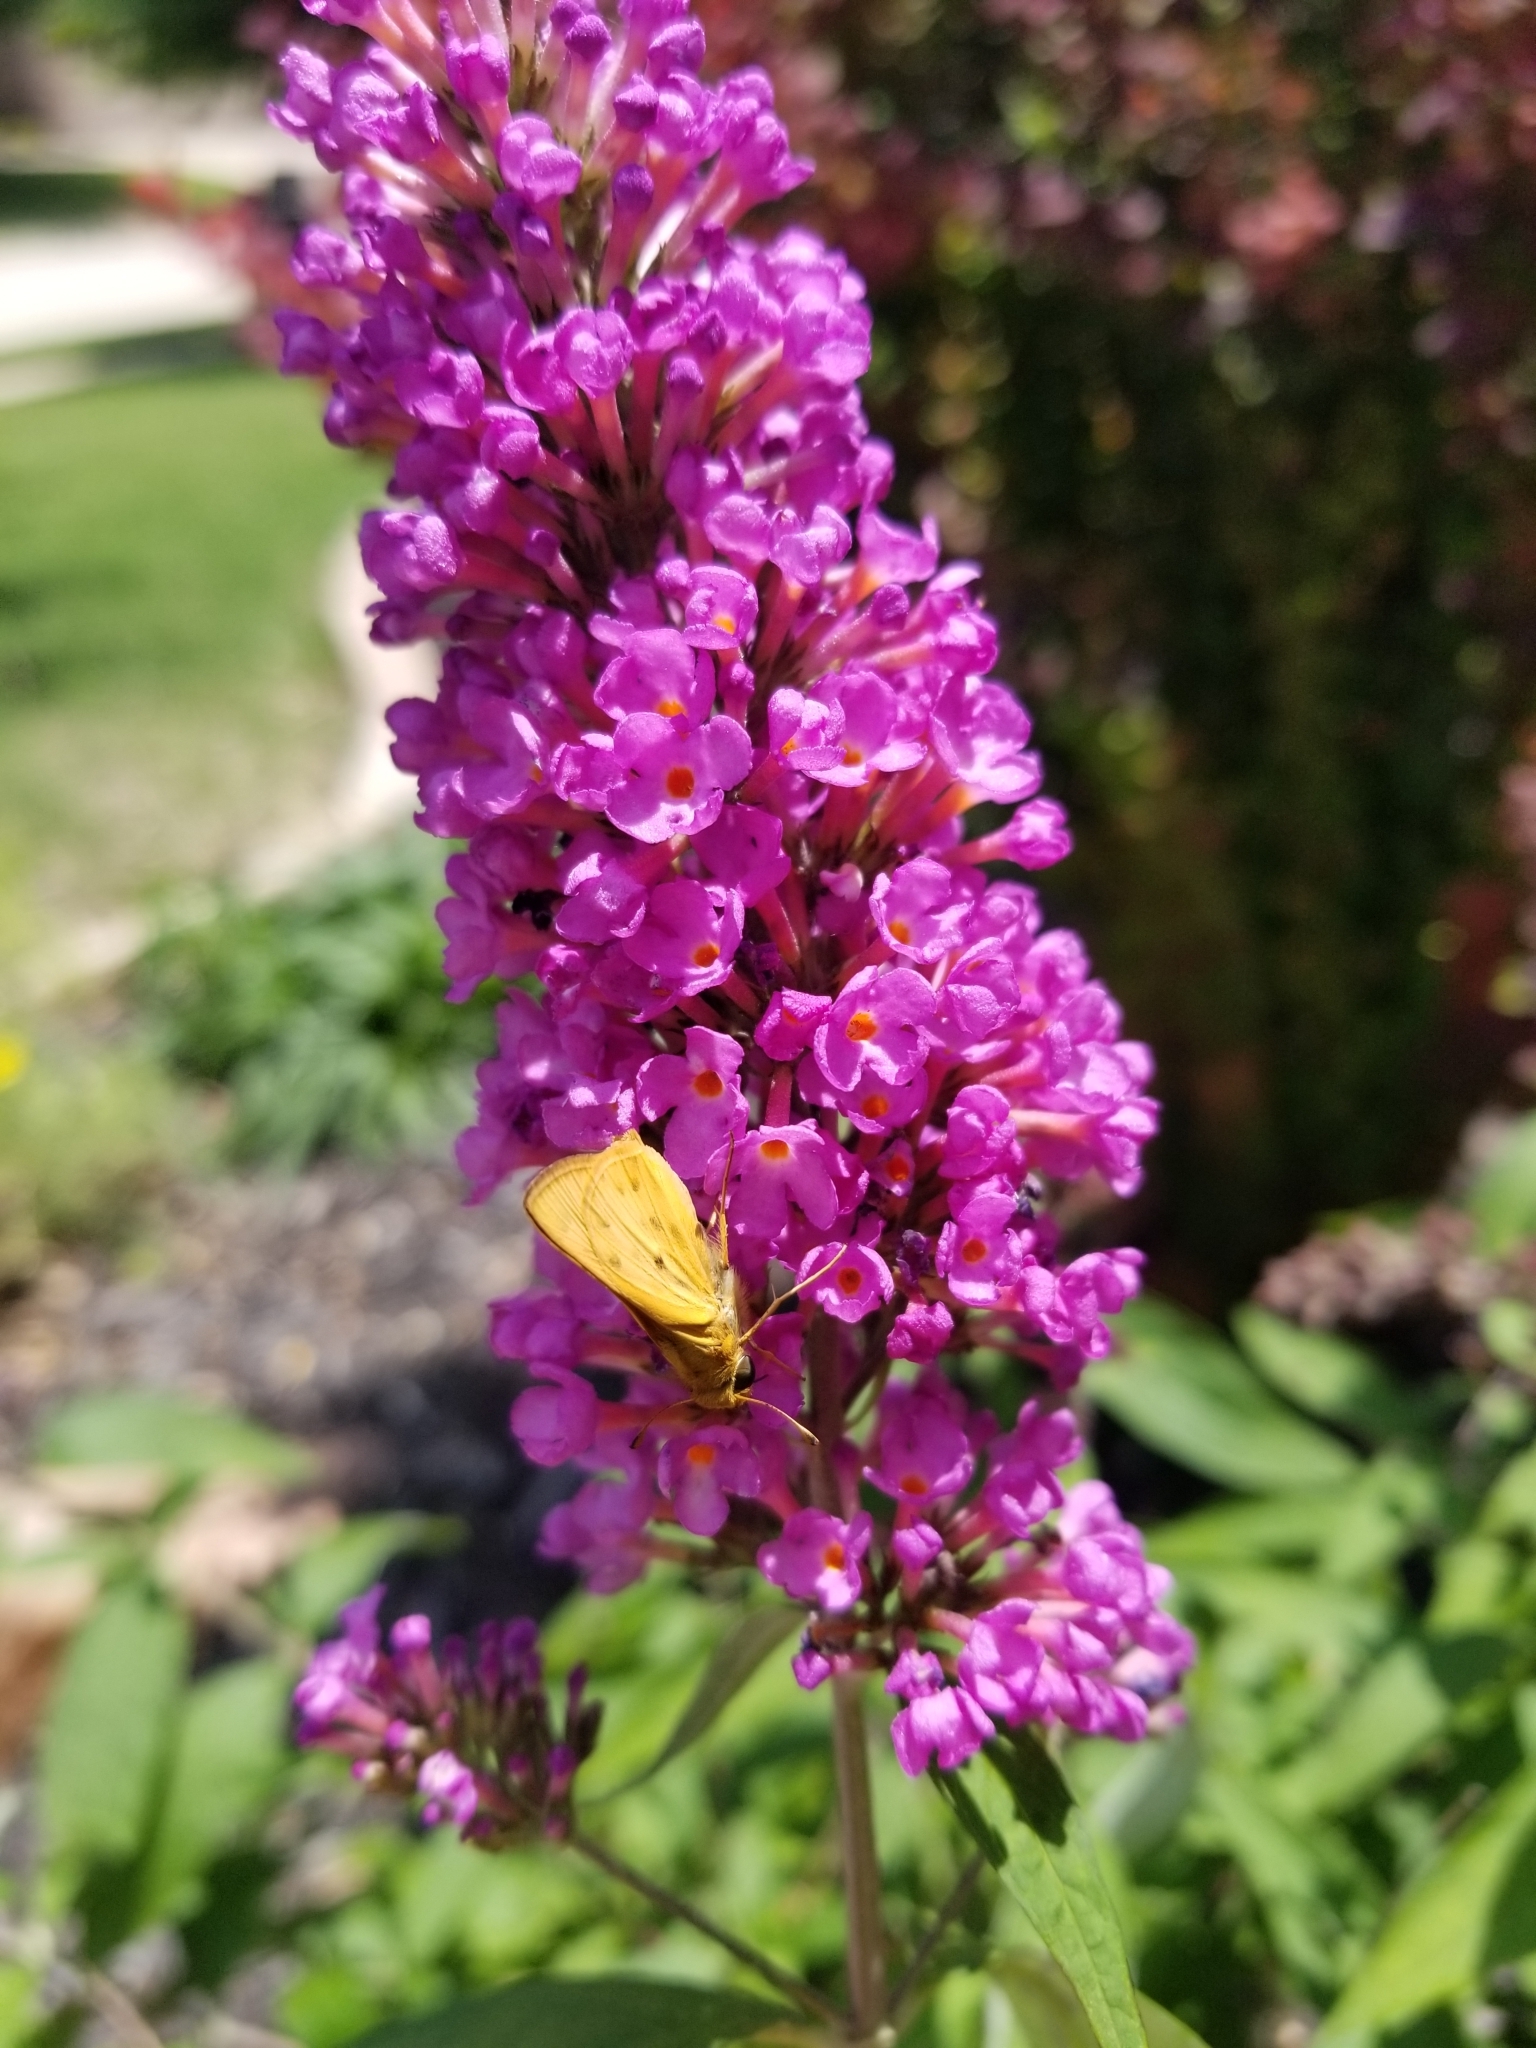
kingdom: Animalia
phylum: Arthropoda
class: Insecta
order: Lepidoptera
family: Hesperiidae
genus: Hylephila
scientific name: Hylephila phyleus
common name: Fiery skipper
